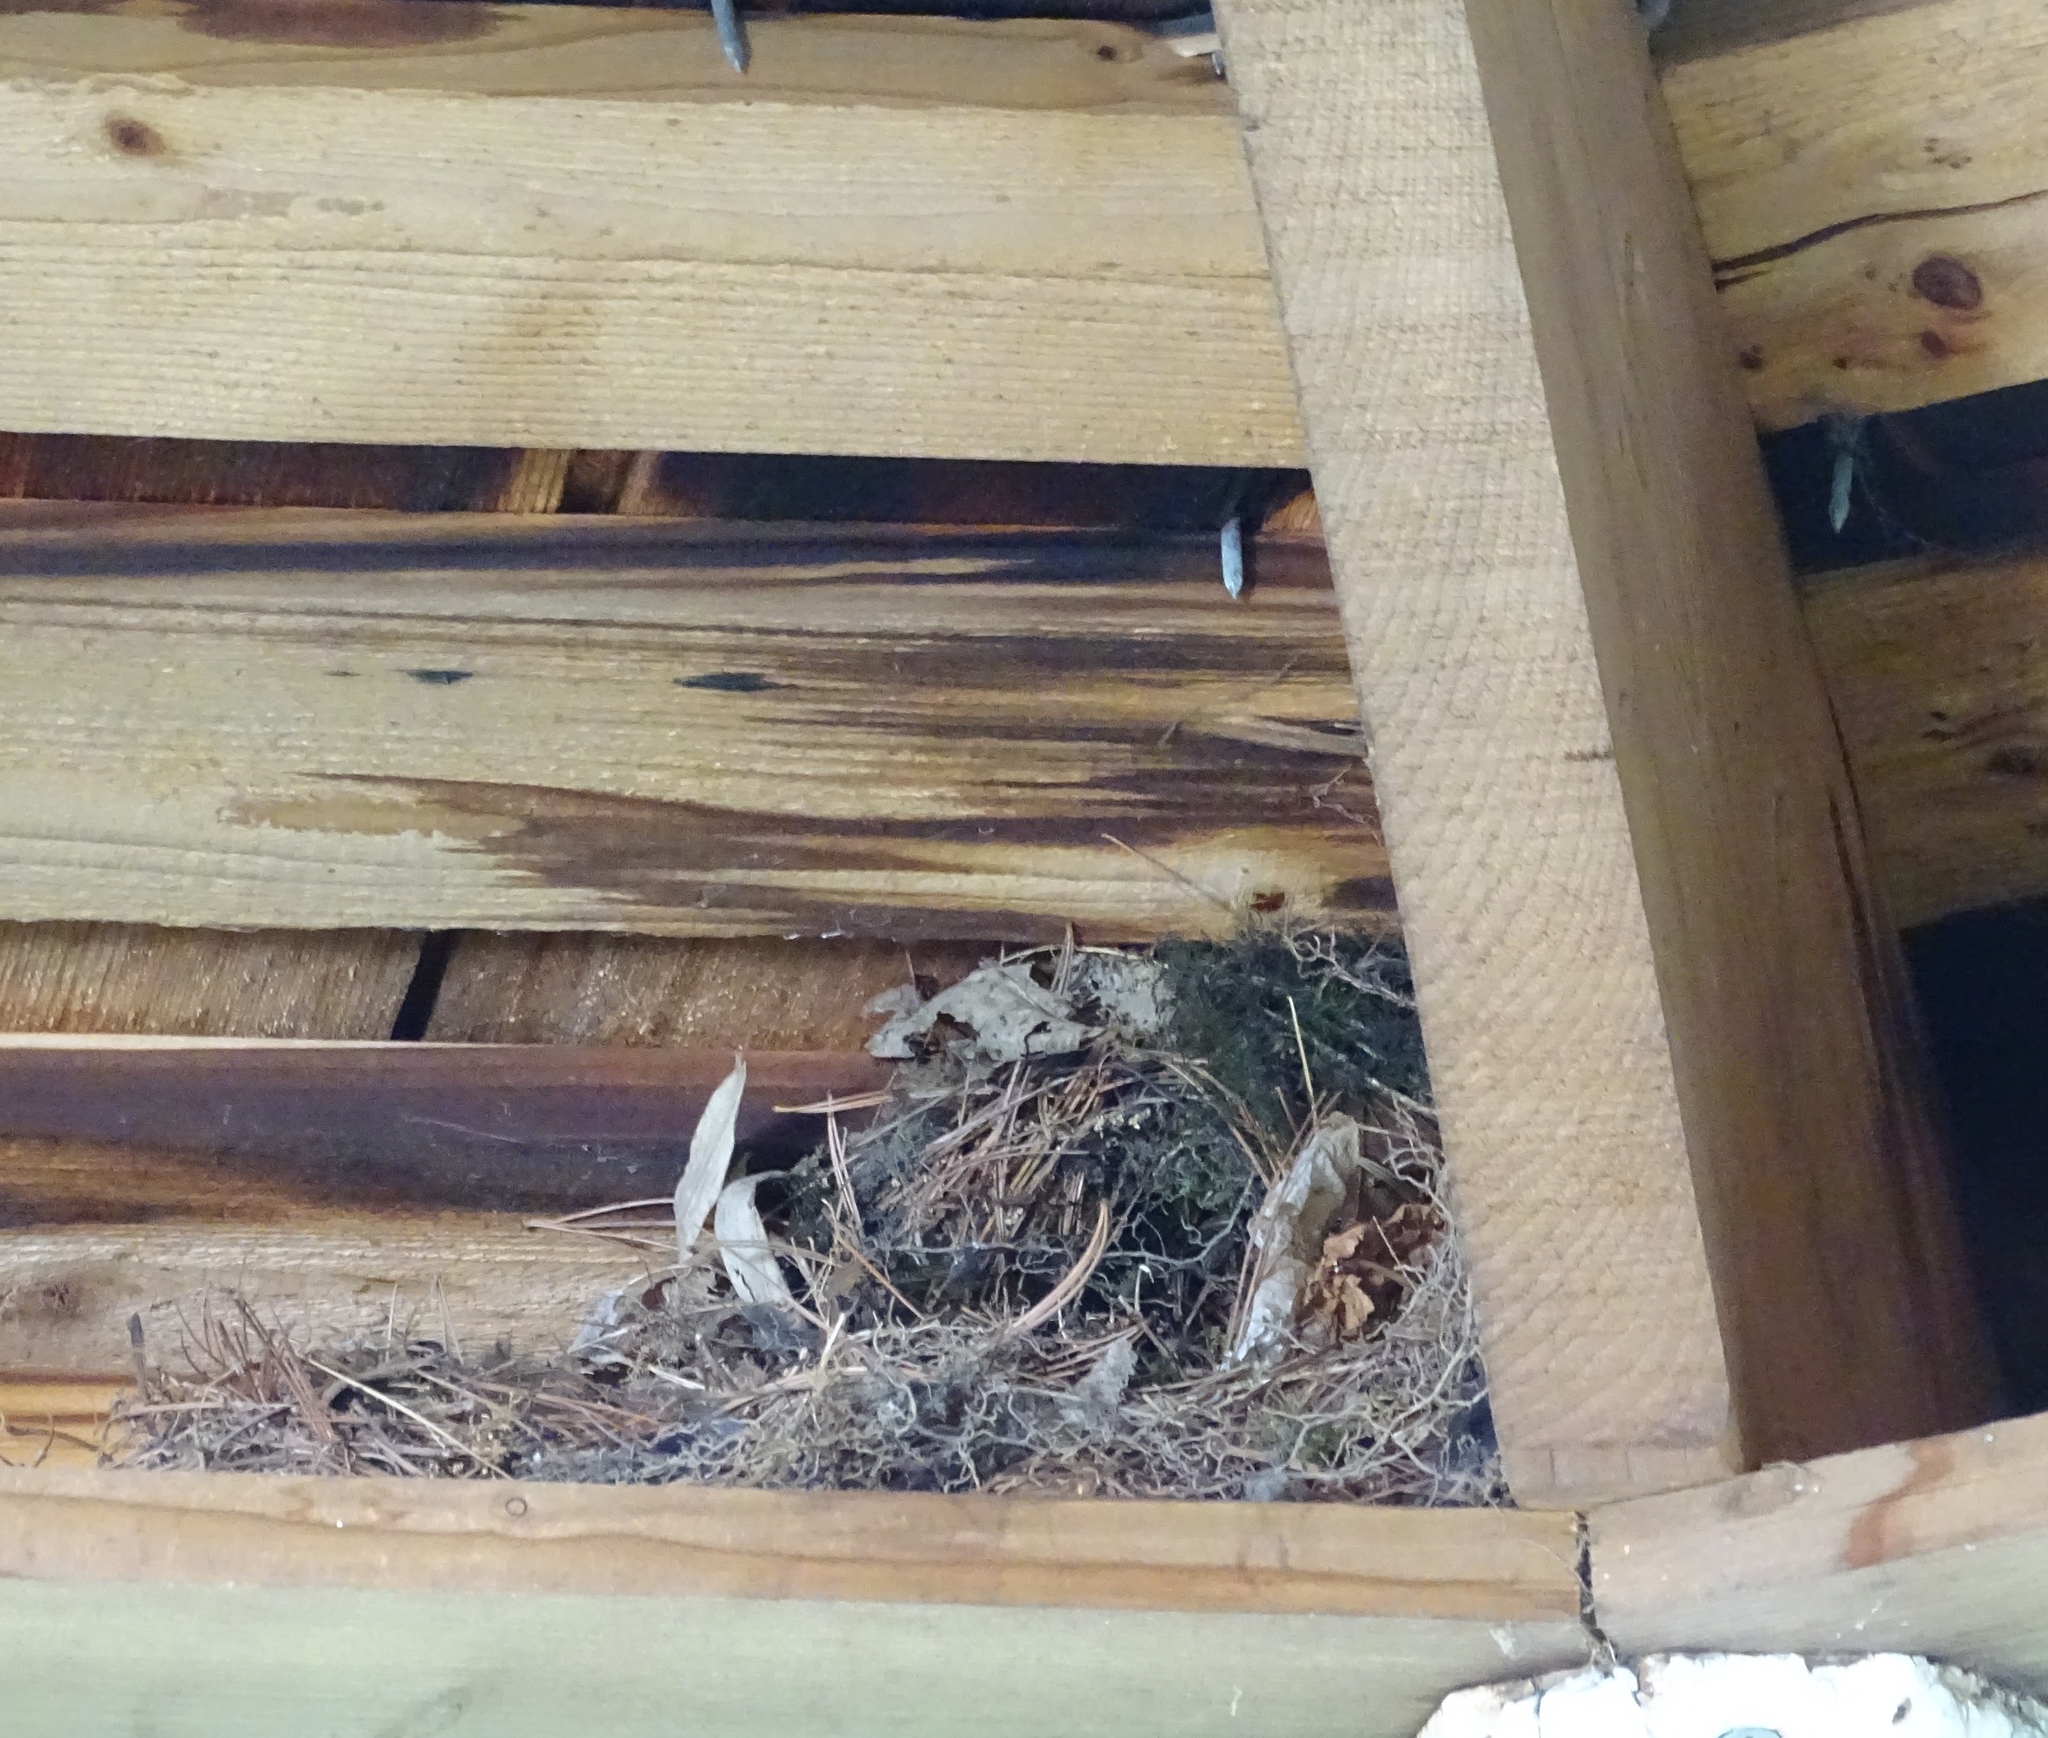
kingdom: Animalia
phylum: Chordata
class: Aves
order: Passeriformes
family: Troglodytidae
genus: Thryothorus
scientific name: Thryothorus ludovicianus
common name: Carolina wren
